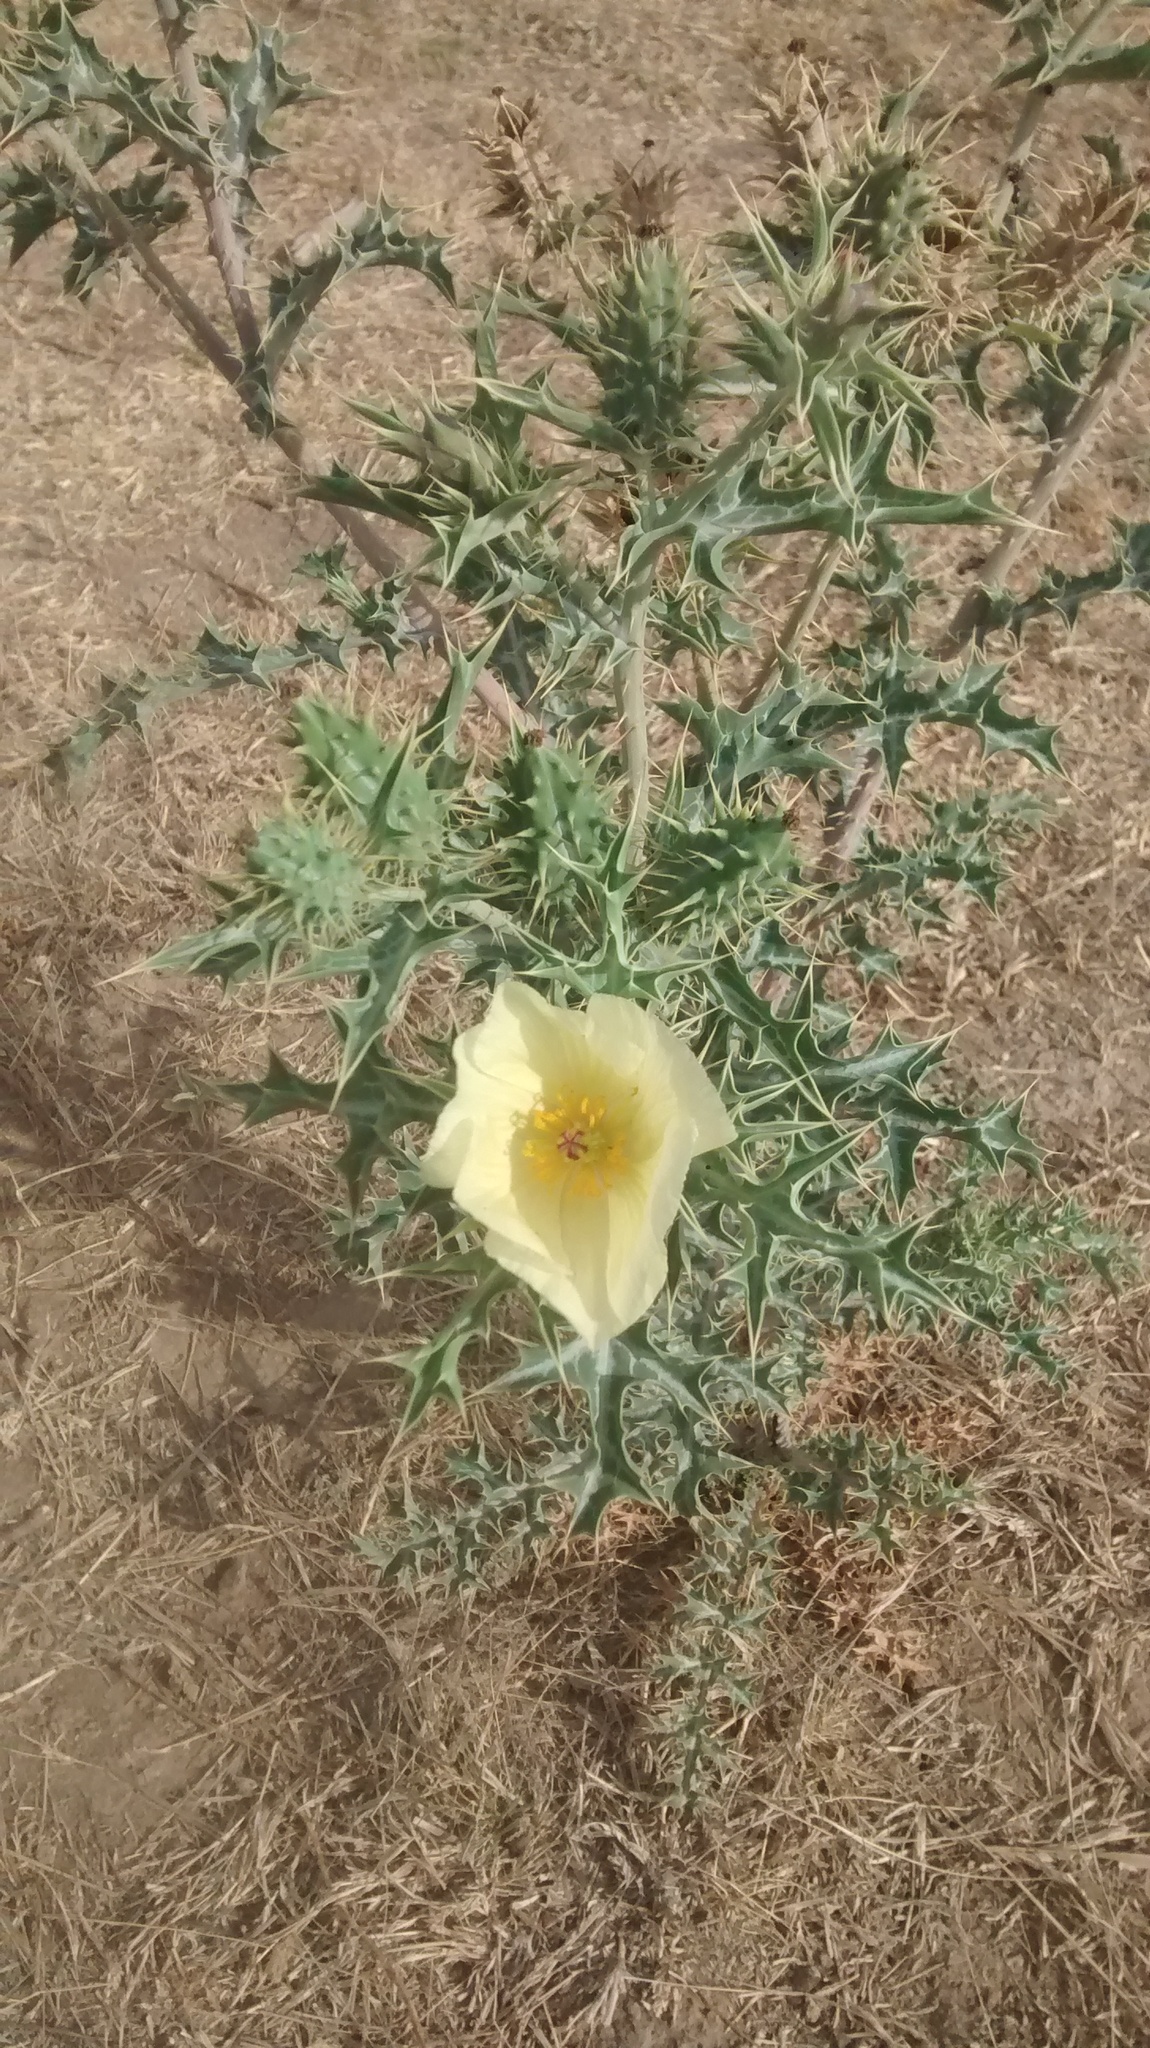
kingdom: Plantae
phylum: Tracheophyta
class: Magnoliopsida
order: Ranunculales
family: Papaveraceae
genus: Argemone
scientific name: Argemone ochroleuca
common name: White-flower mexican-poppy
